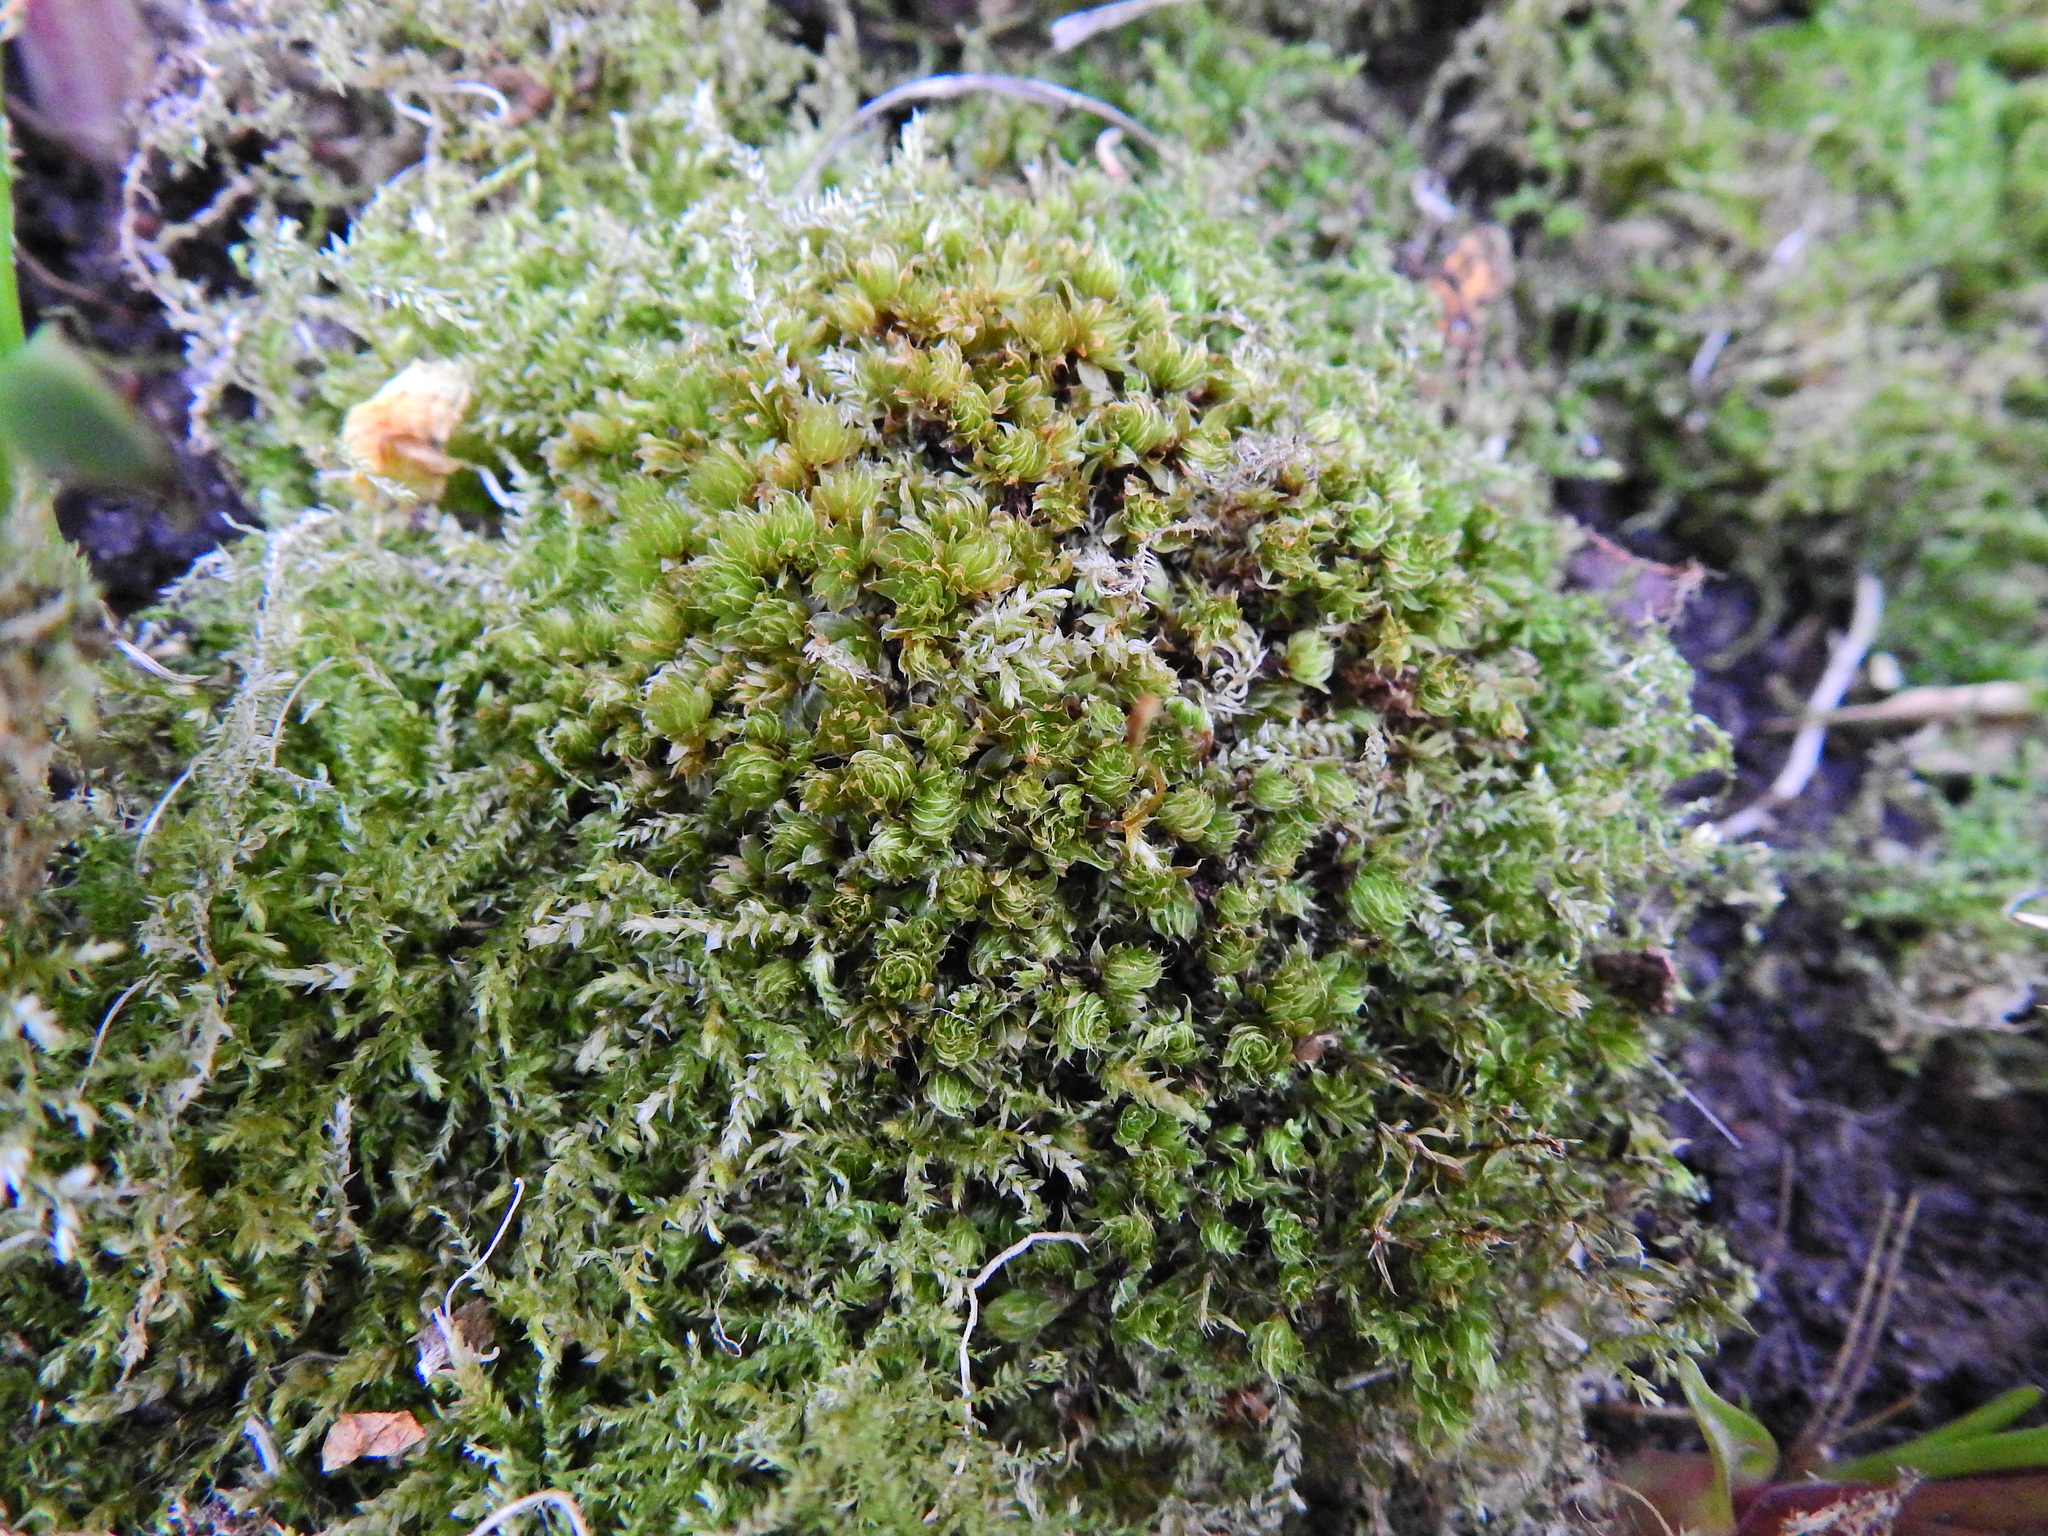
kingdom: Plantae
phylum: Bryophyta
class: Bryopsida
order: Bryales
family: Bryaceae
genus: Rosulabryum
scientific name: Rosulabryum capillare
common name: Capillary thread-moss
